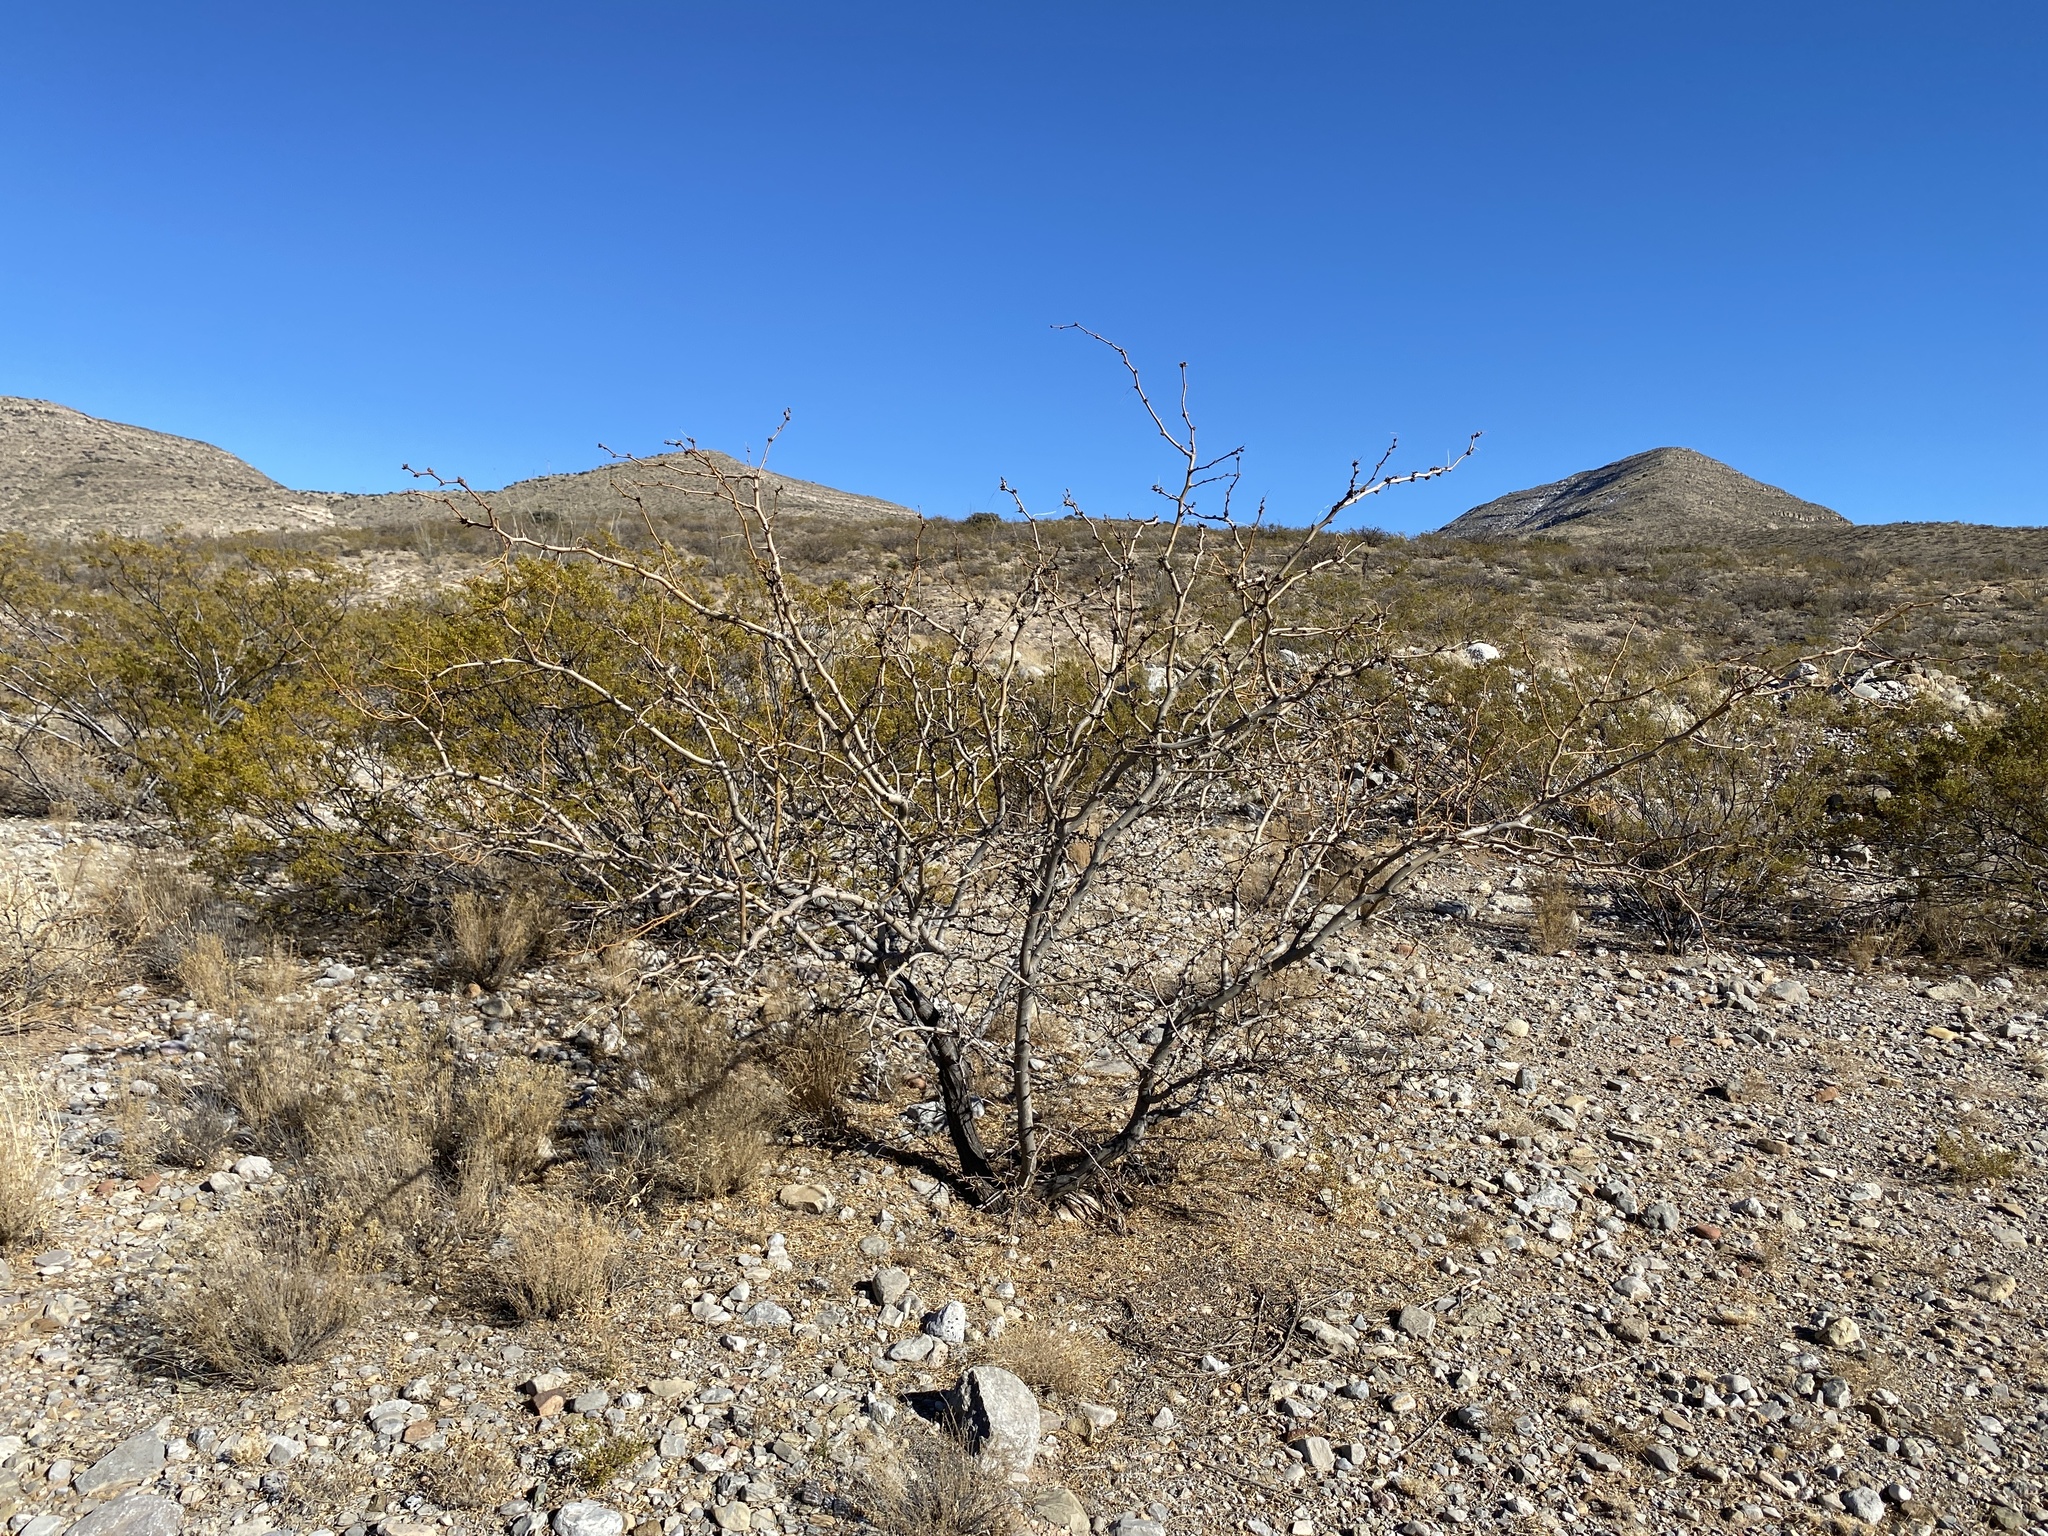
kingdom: Plantae
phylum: Tracheophyta
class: Magnoliopsida
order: Fabales
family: Fabaceae
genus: Prosopis
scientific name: Prosopis glandulosa
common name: Honey mesquite
